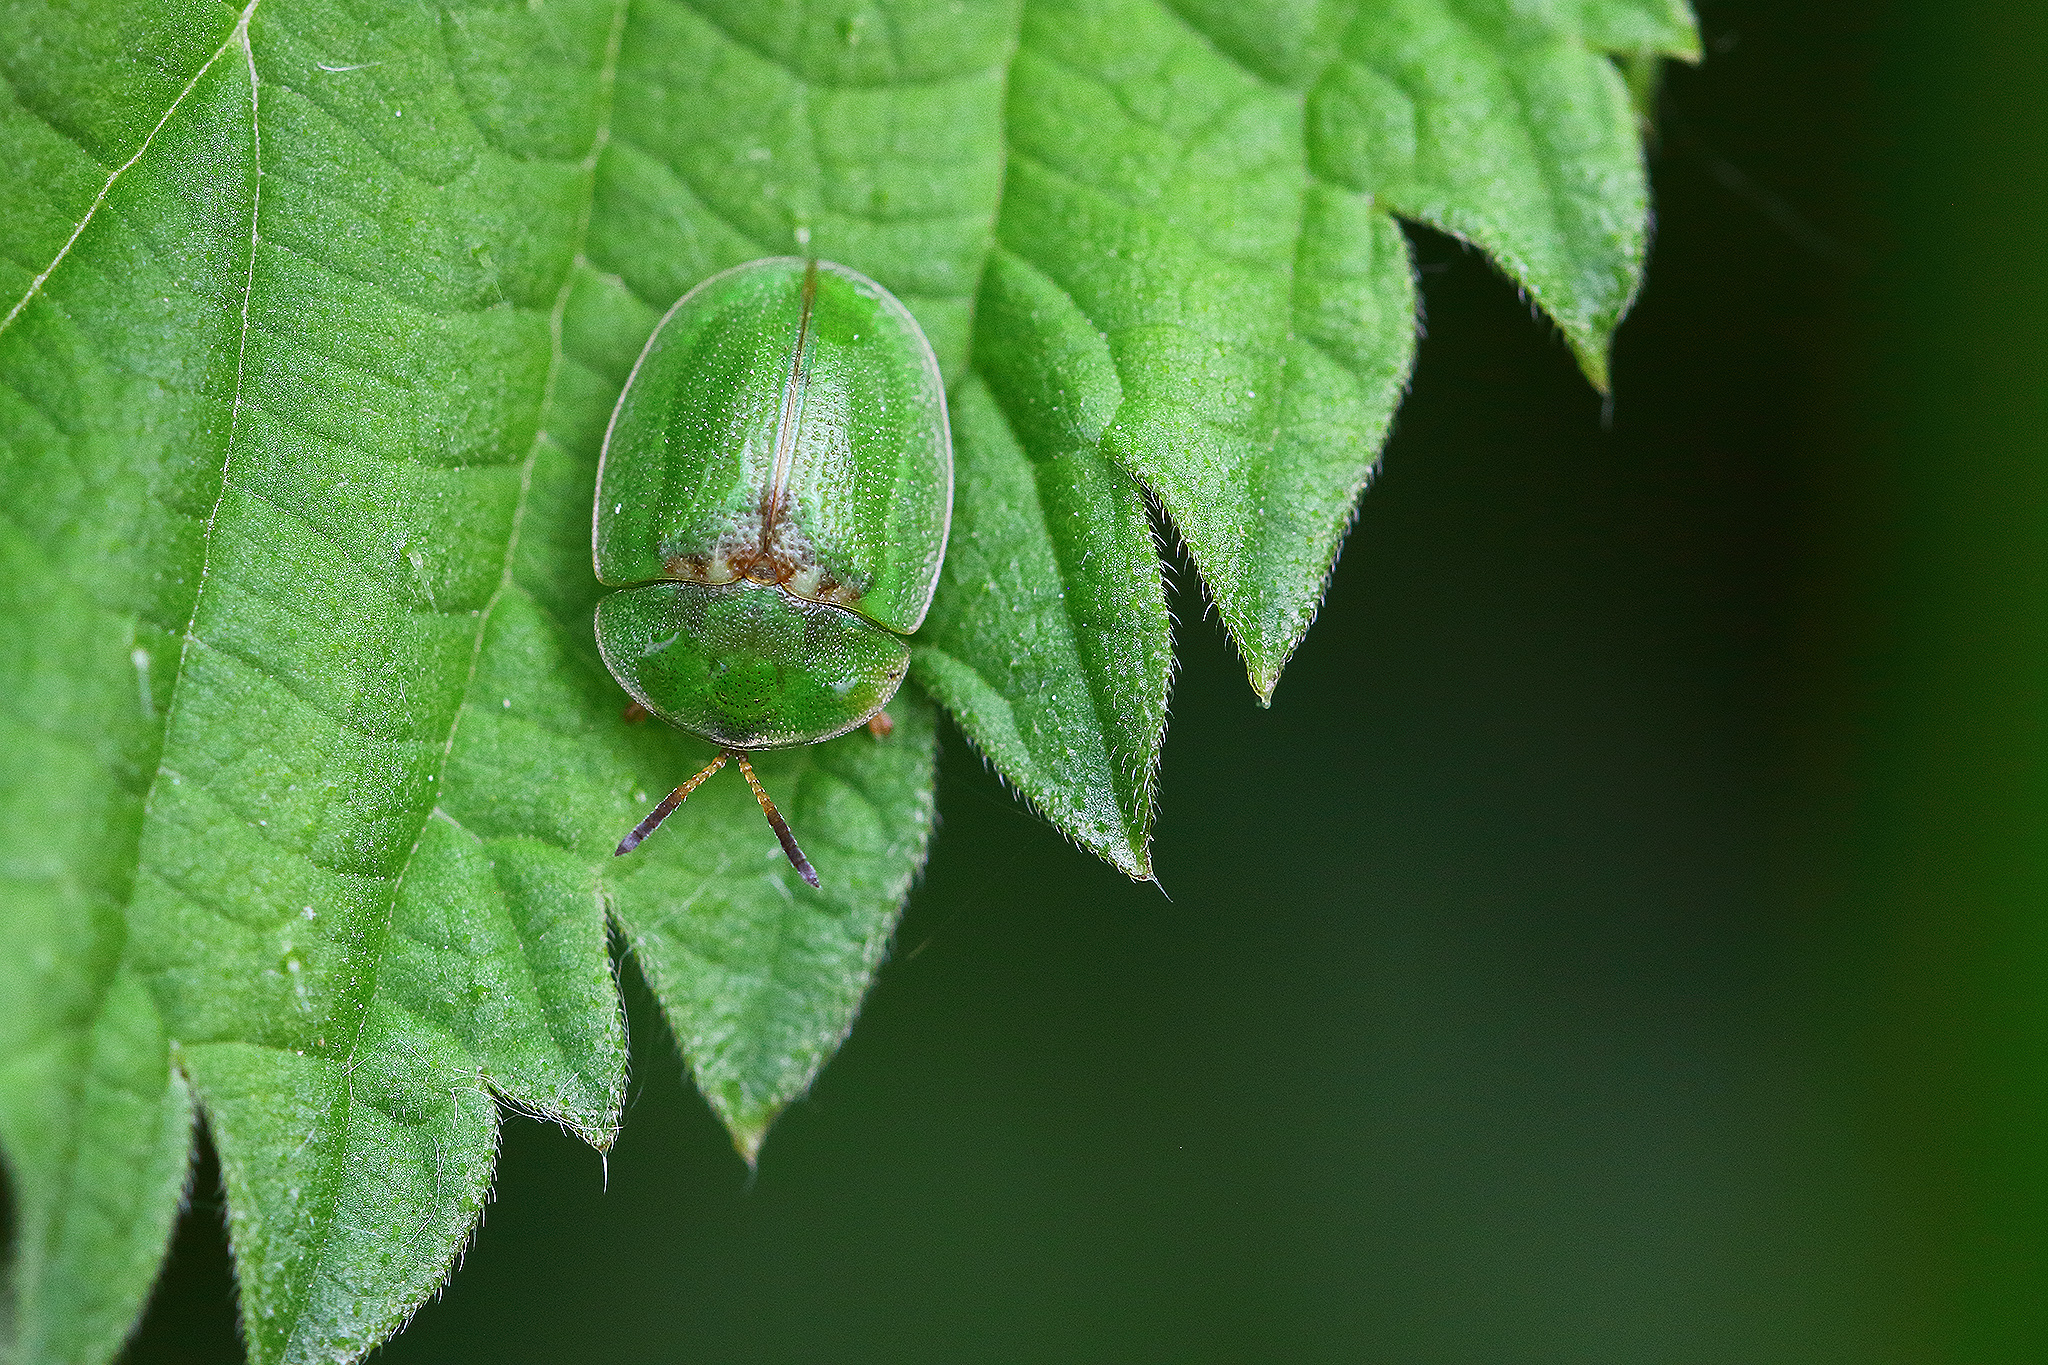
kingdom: Animalia
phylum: Arthropoda
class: Insecta
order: Coleoptera
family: Chrysomelidae
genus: Cassida
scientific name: Cassida rubiginosa
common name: Thistle tortoise beetle
